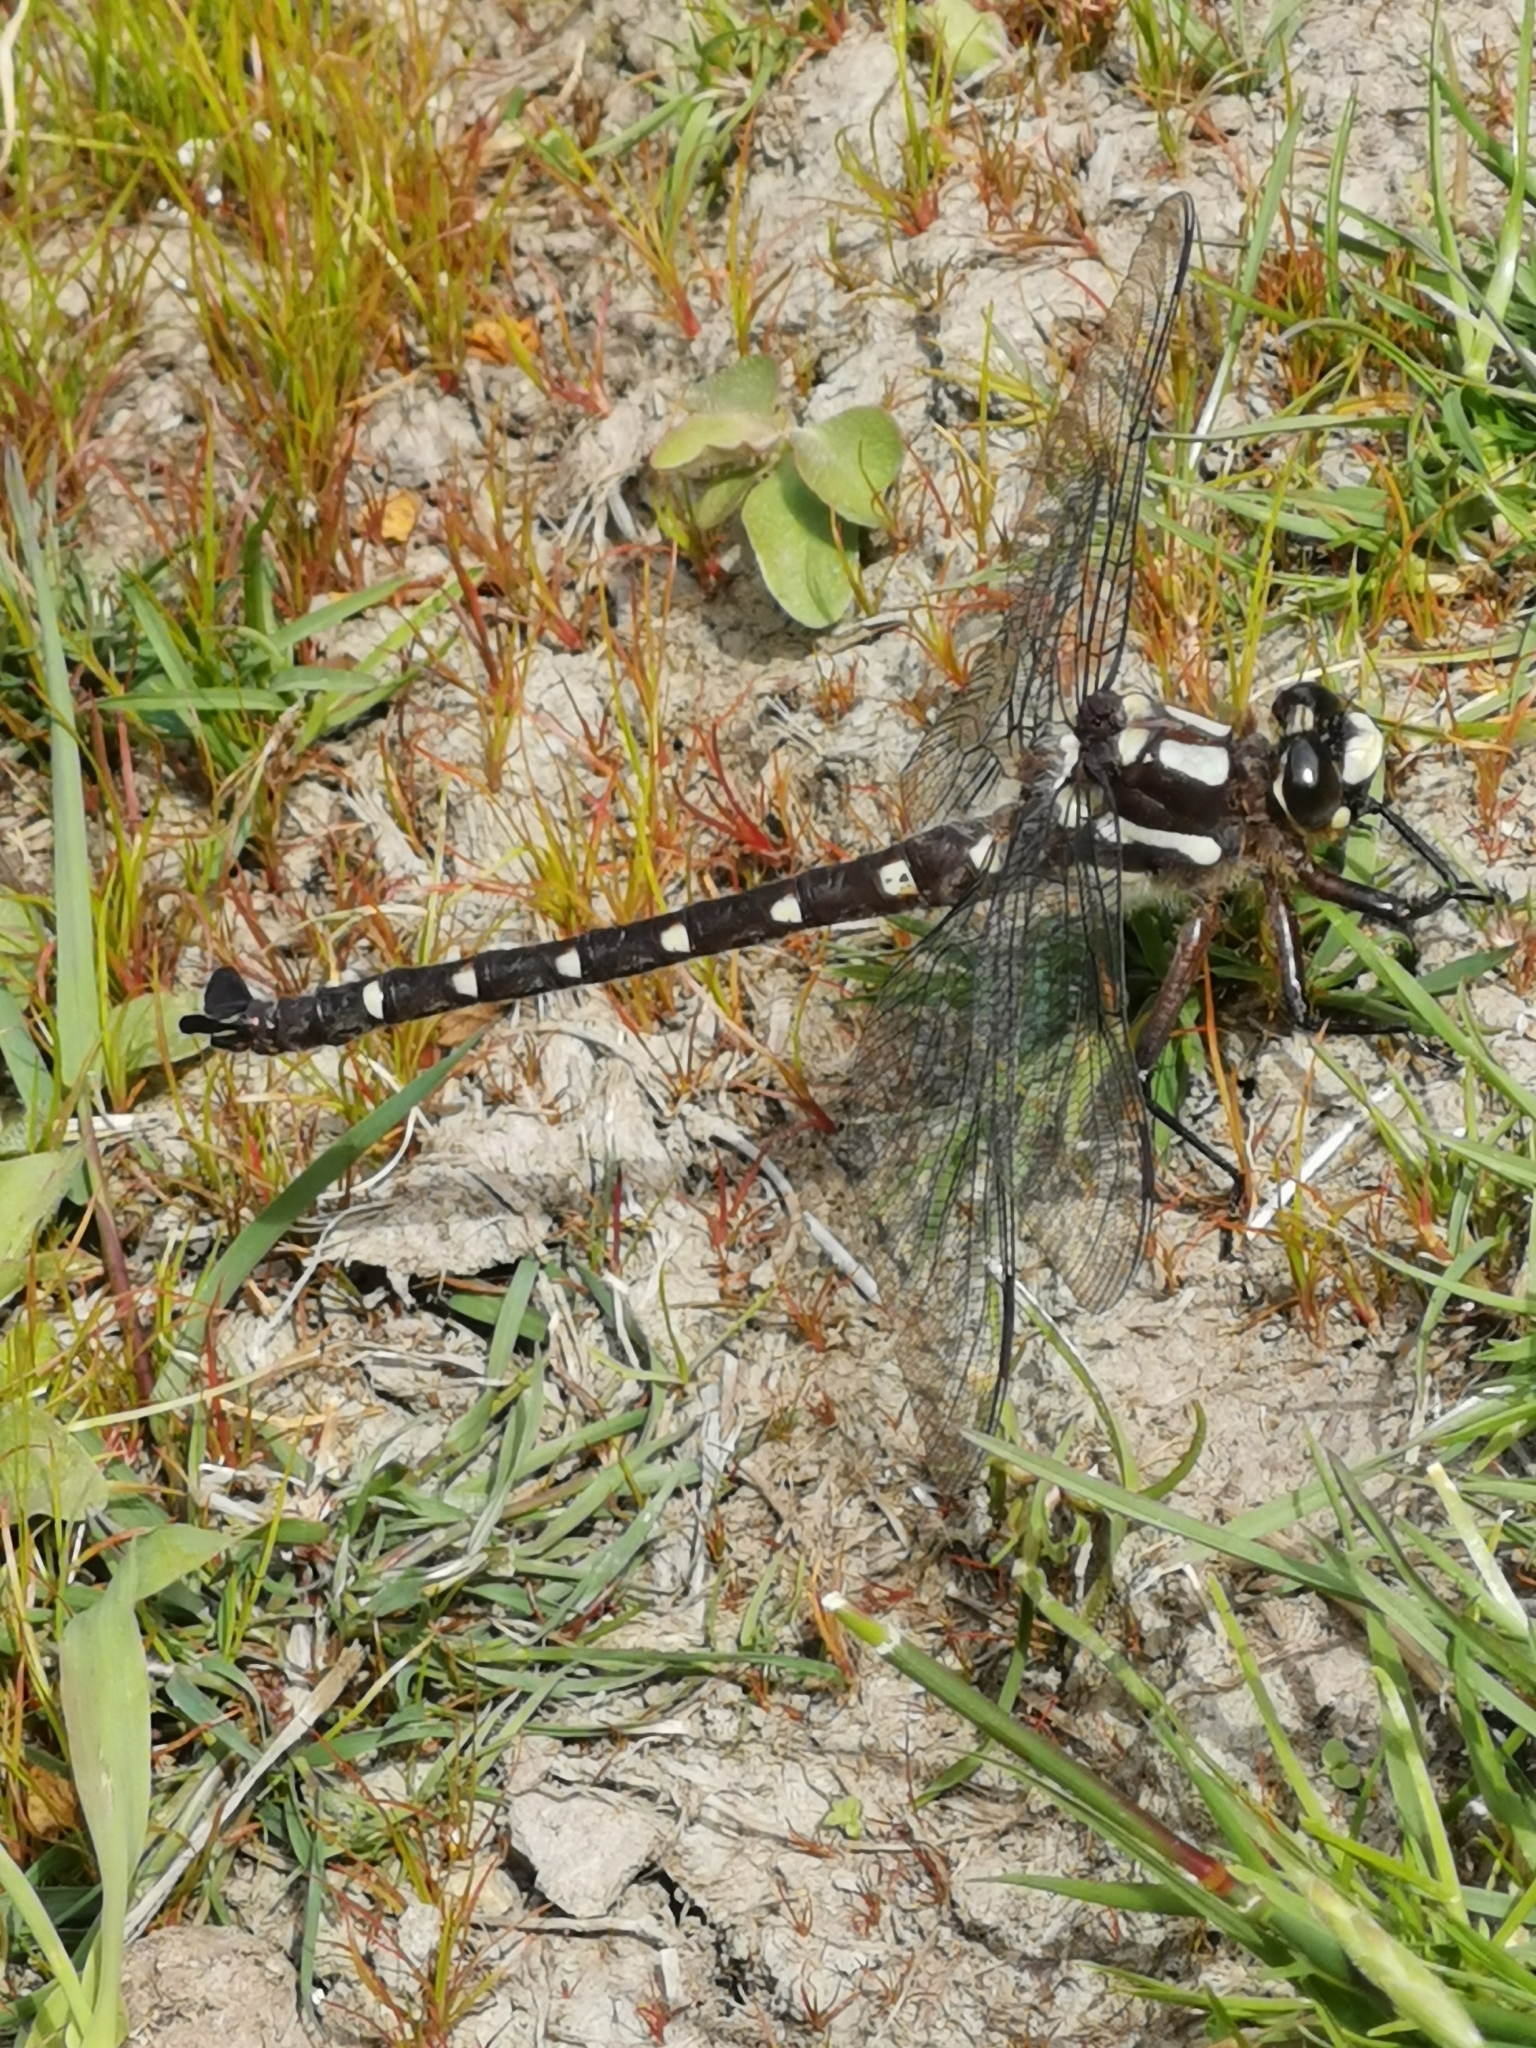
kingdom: Animalia
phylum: Arthropoda
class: Insecta
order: Odonata
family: Petaluridae
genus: Uropetala
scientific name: Uropetala
